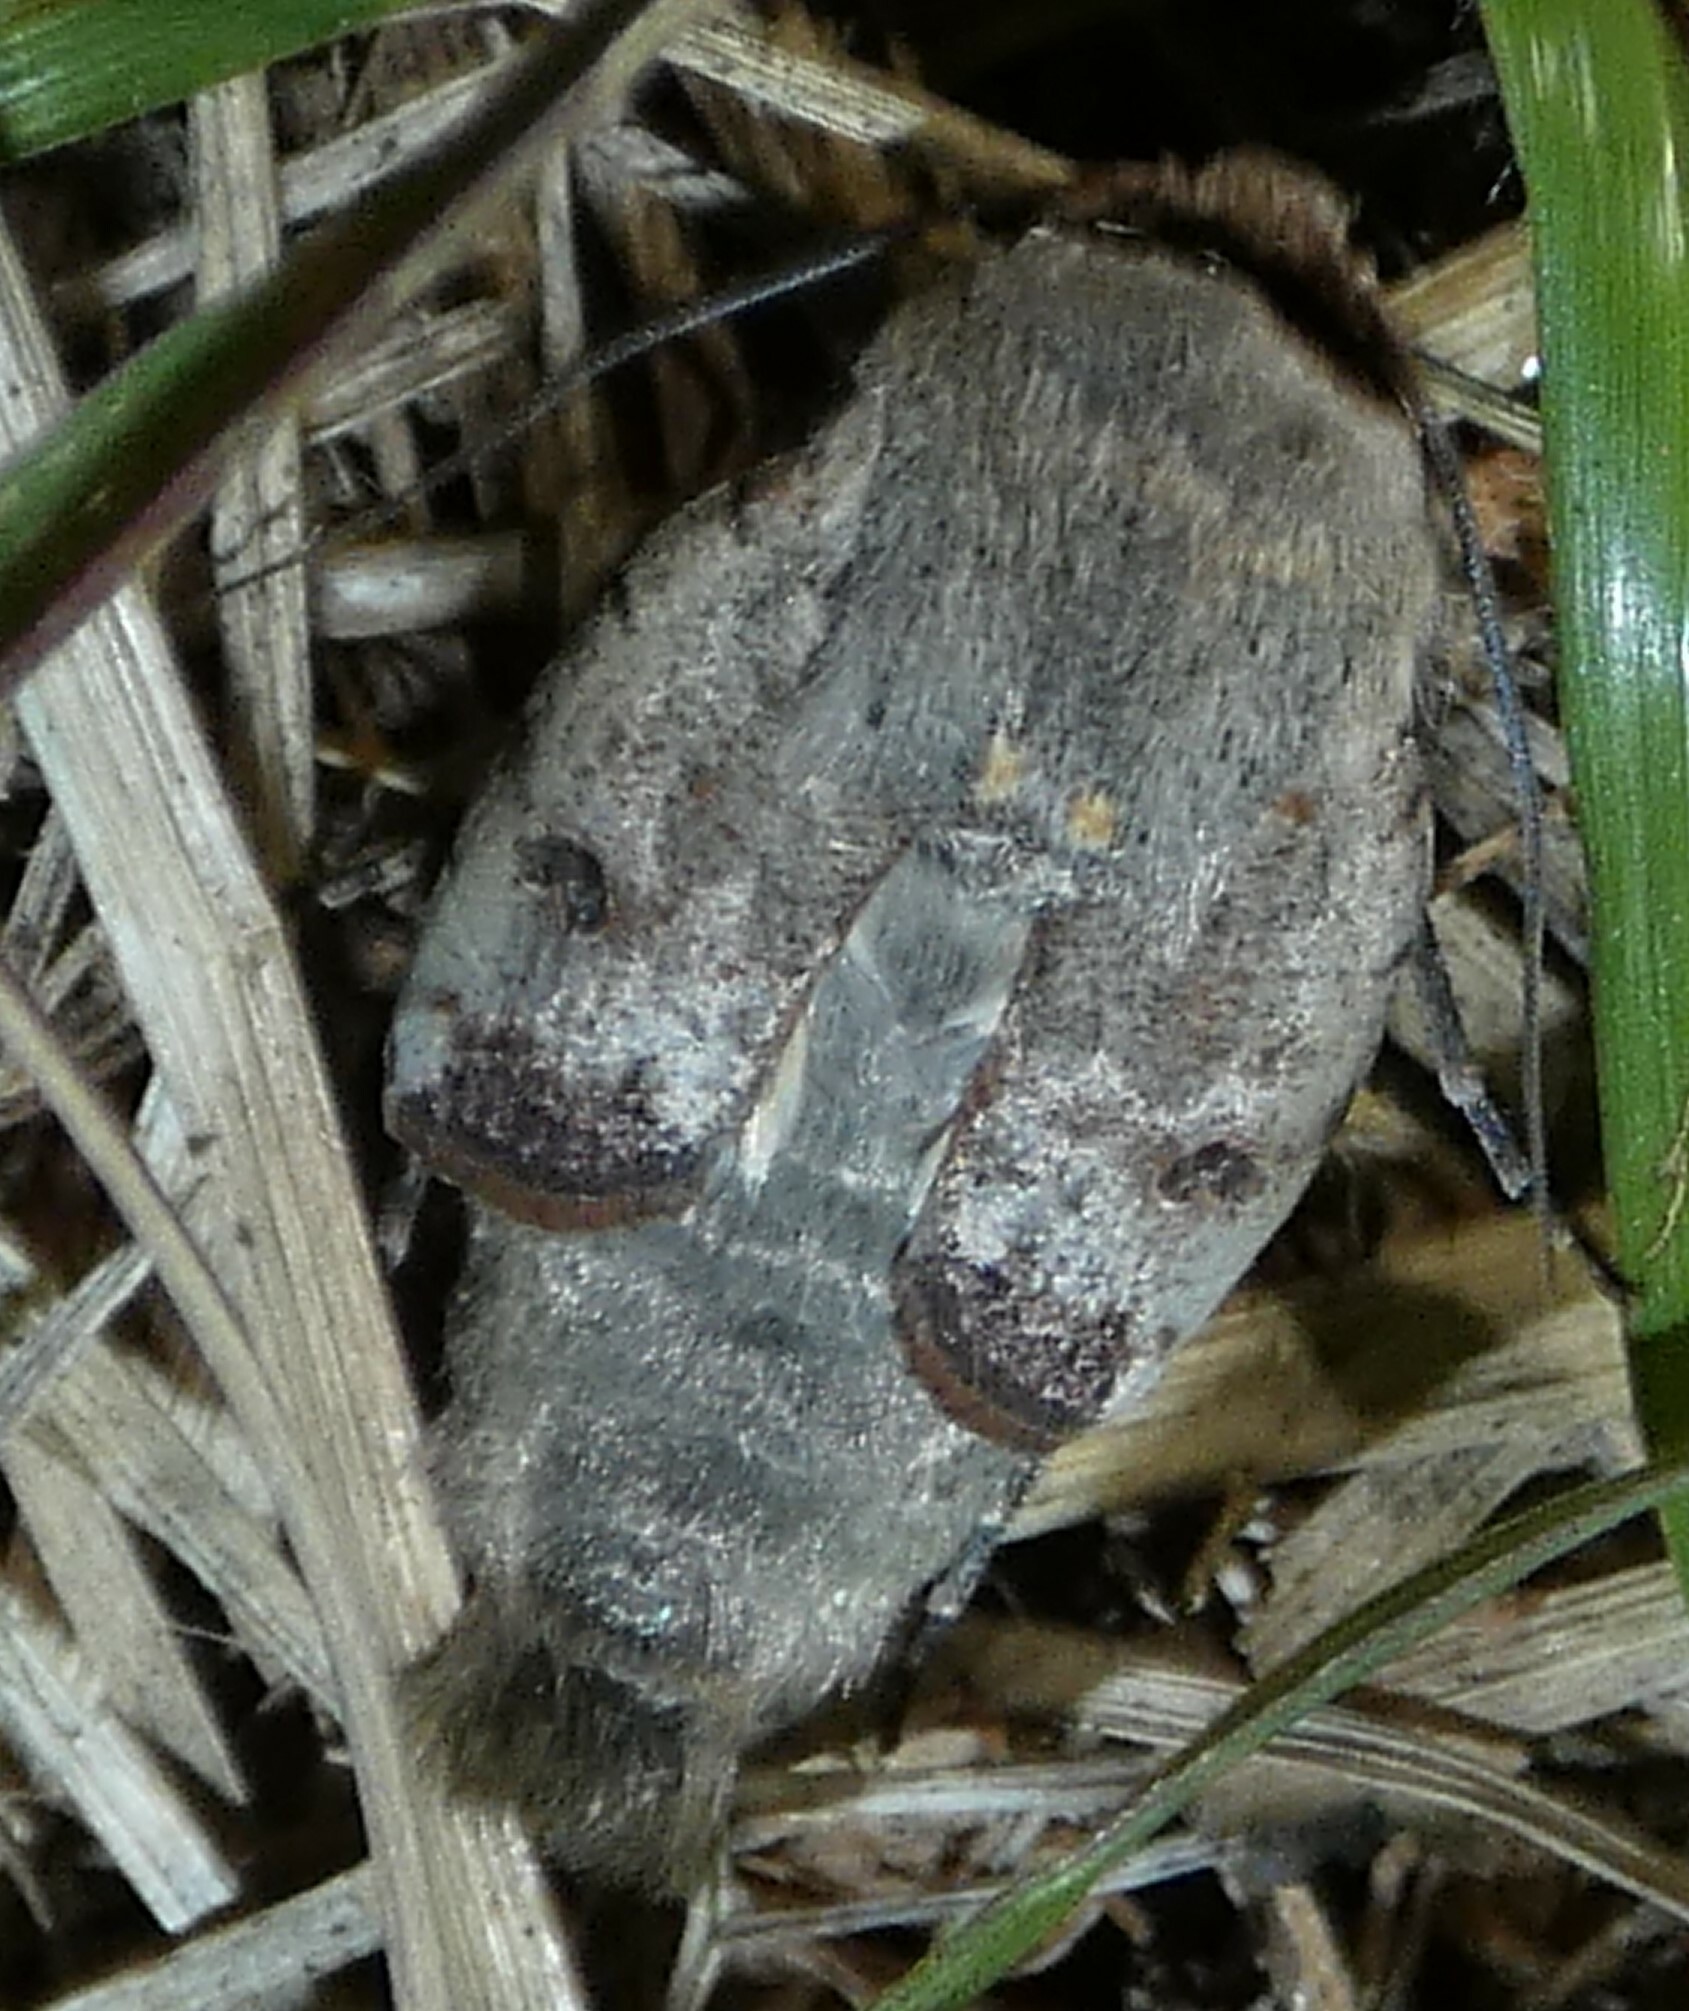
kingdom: Animalia
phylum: Arthropoda
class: Insecta
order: Lepidoptera
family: Noctuidae
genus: Anicla
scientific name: Anicla infecta
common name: Green cutworm
